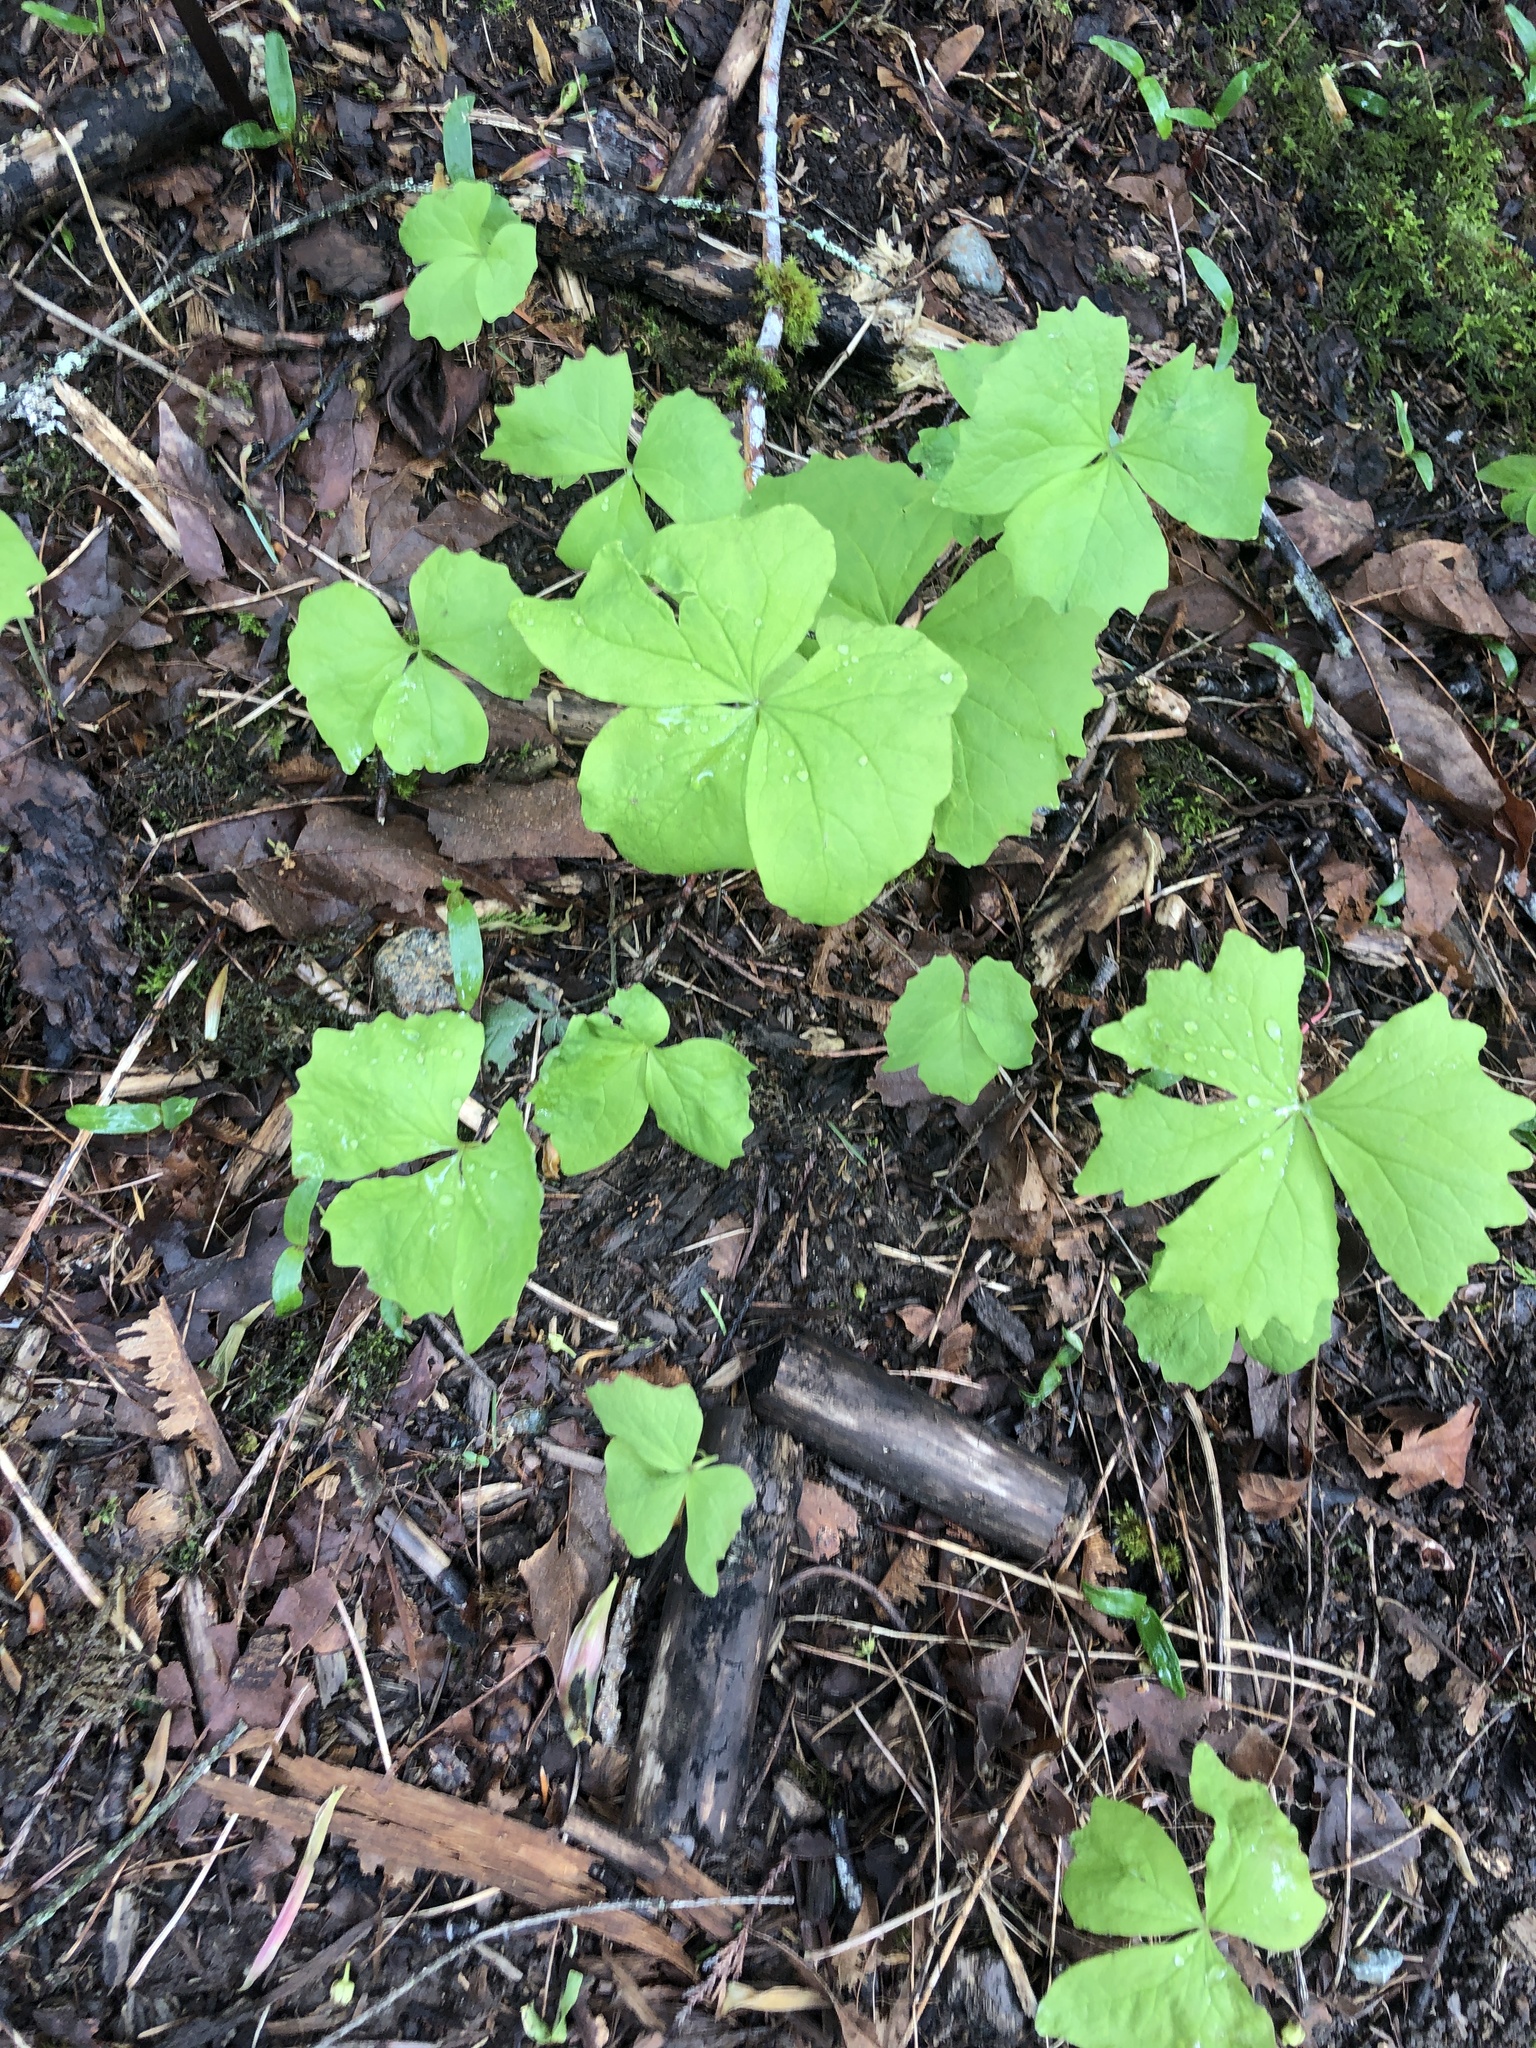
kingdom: Plantae
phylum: Tracheophyta
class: Magnoliopsida
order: Ranunculales
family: Berberidaceae
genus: Achlys
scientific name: Achlys triphylla
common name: Vanilla-leaf
